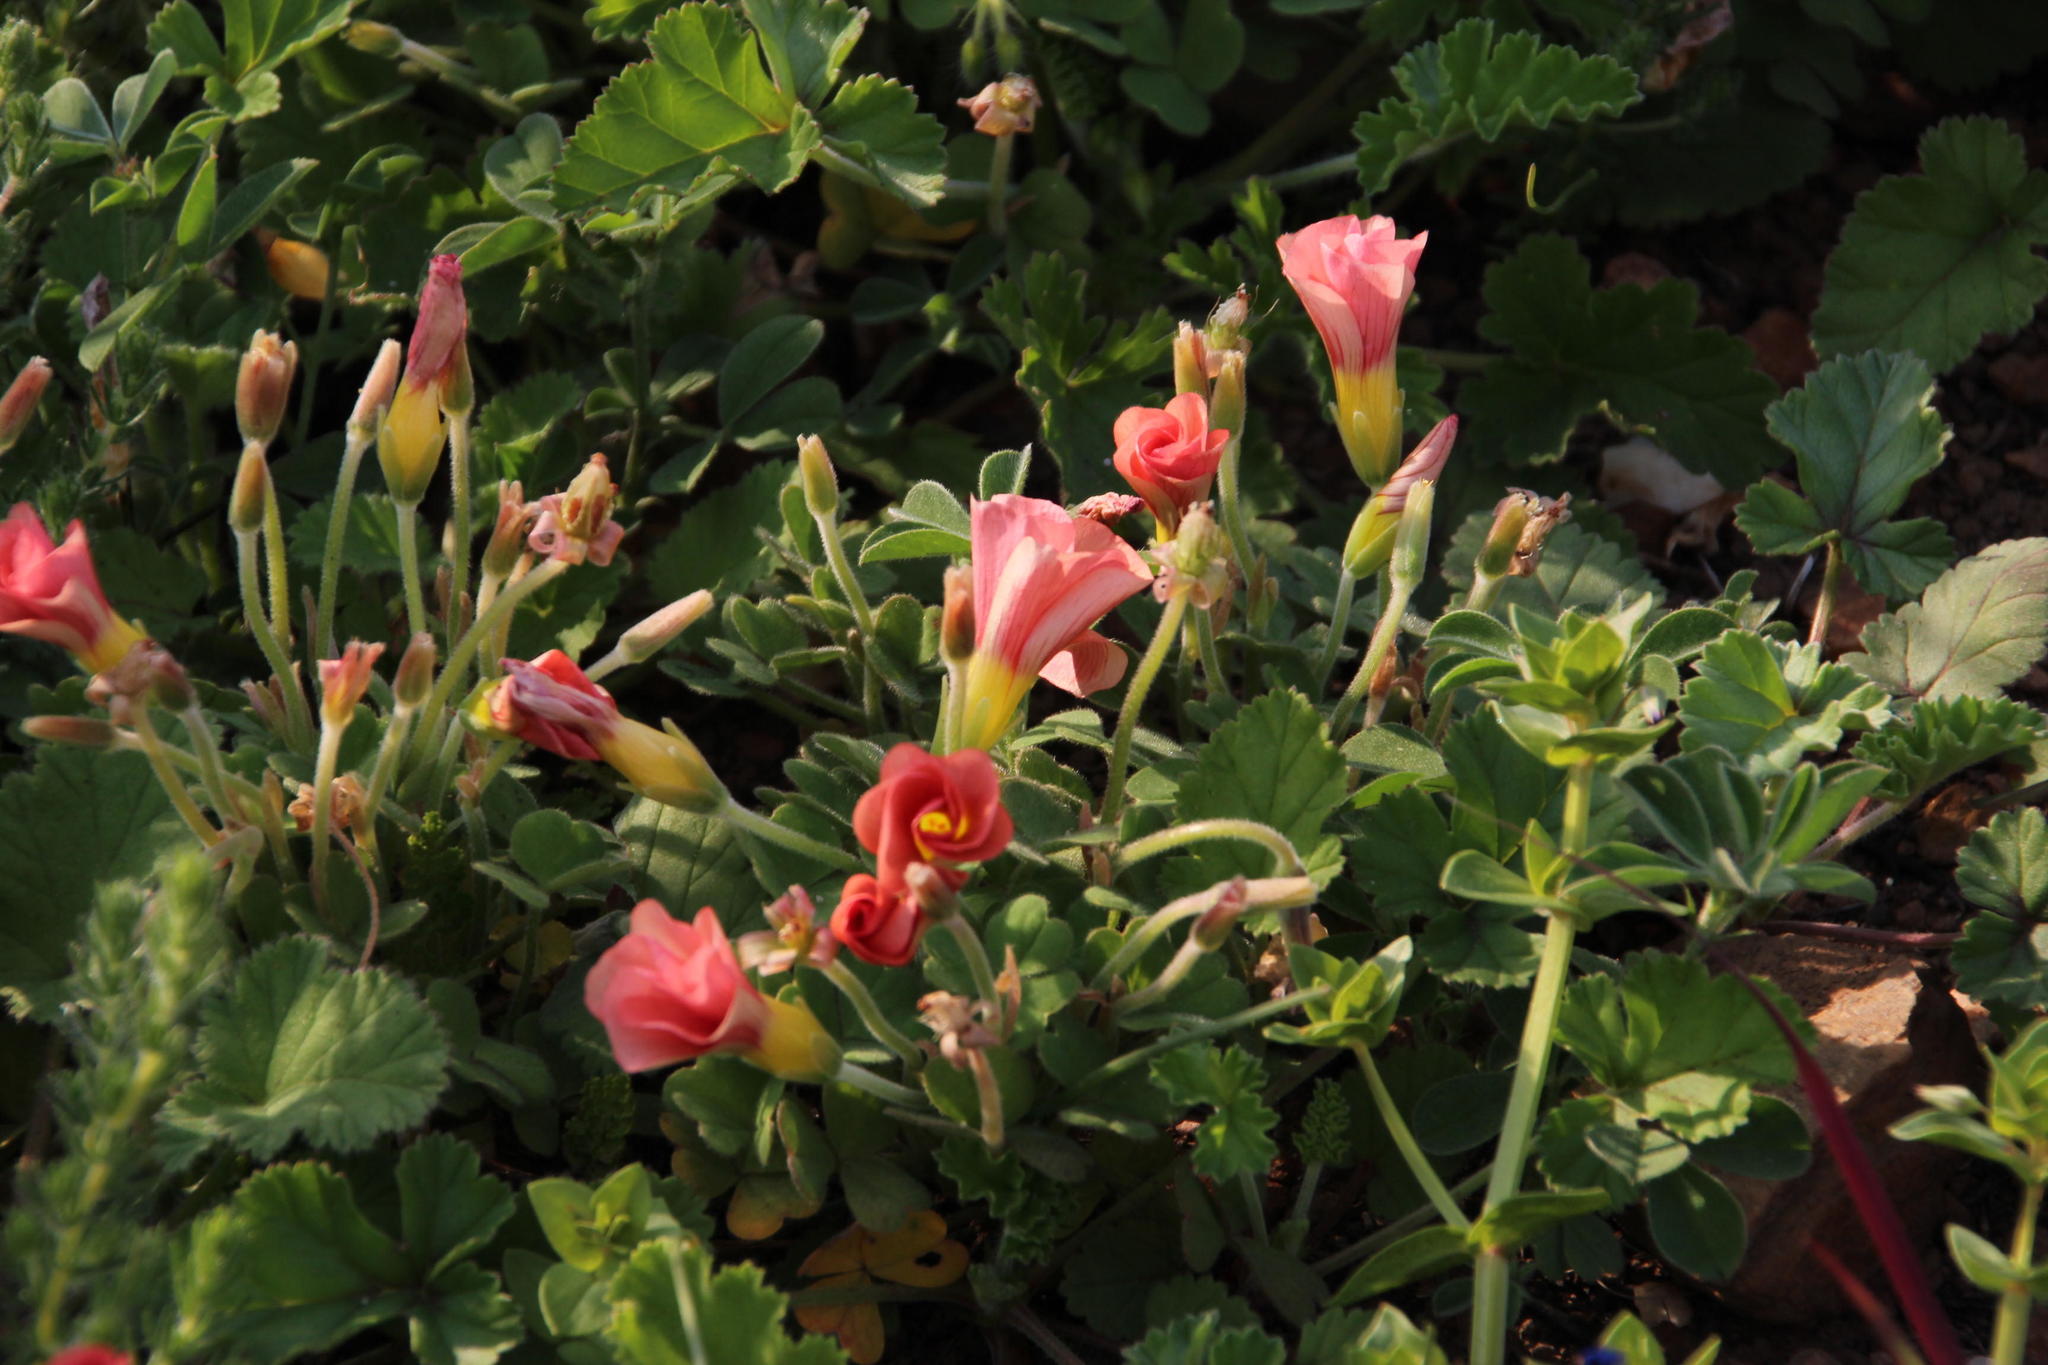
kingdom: Plantae
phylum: Tracheophyta
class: Magnoliopsida
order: Oxalidales
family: Oxalidaceae
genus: Oxalis
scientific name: Oxalis obtusa
